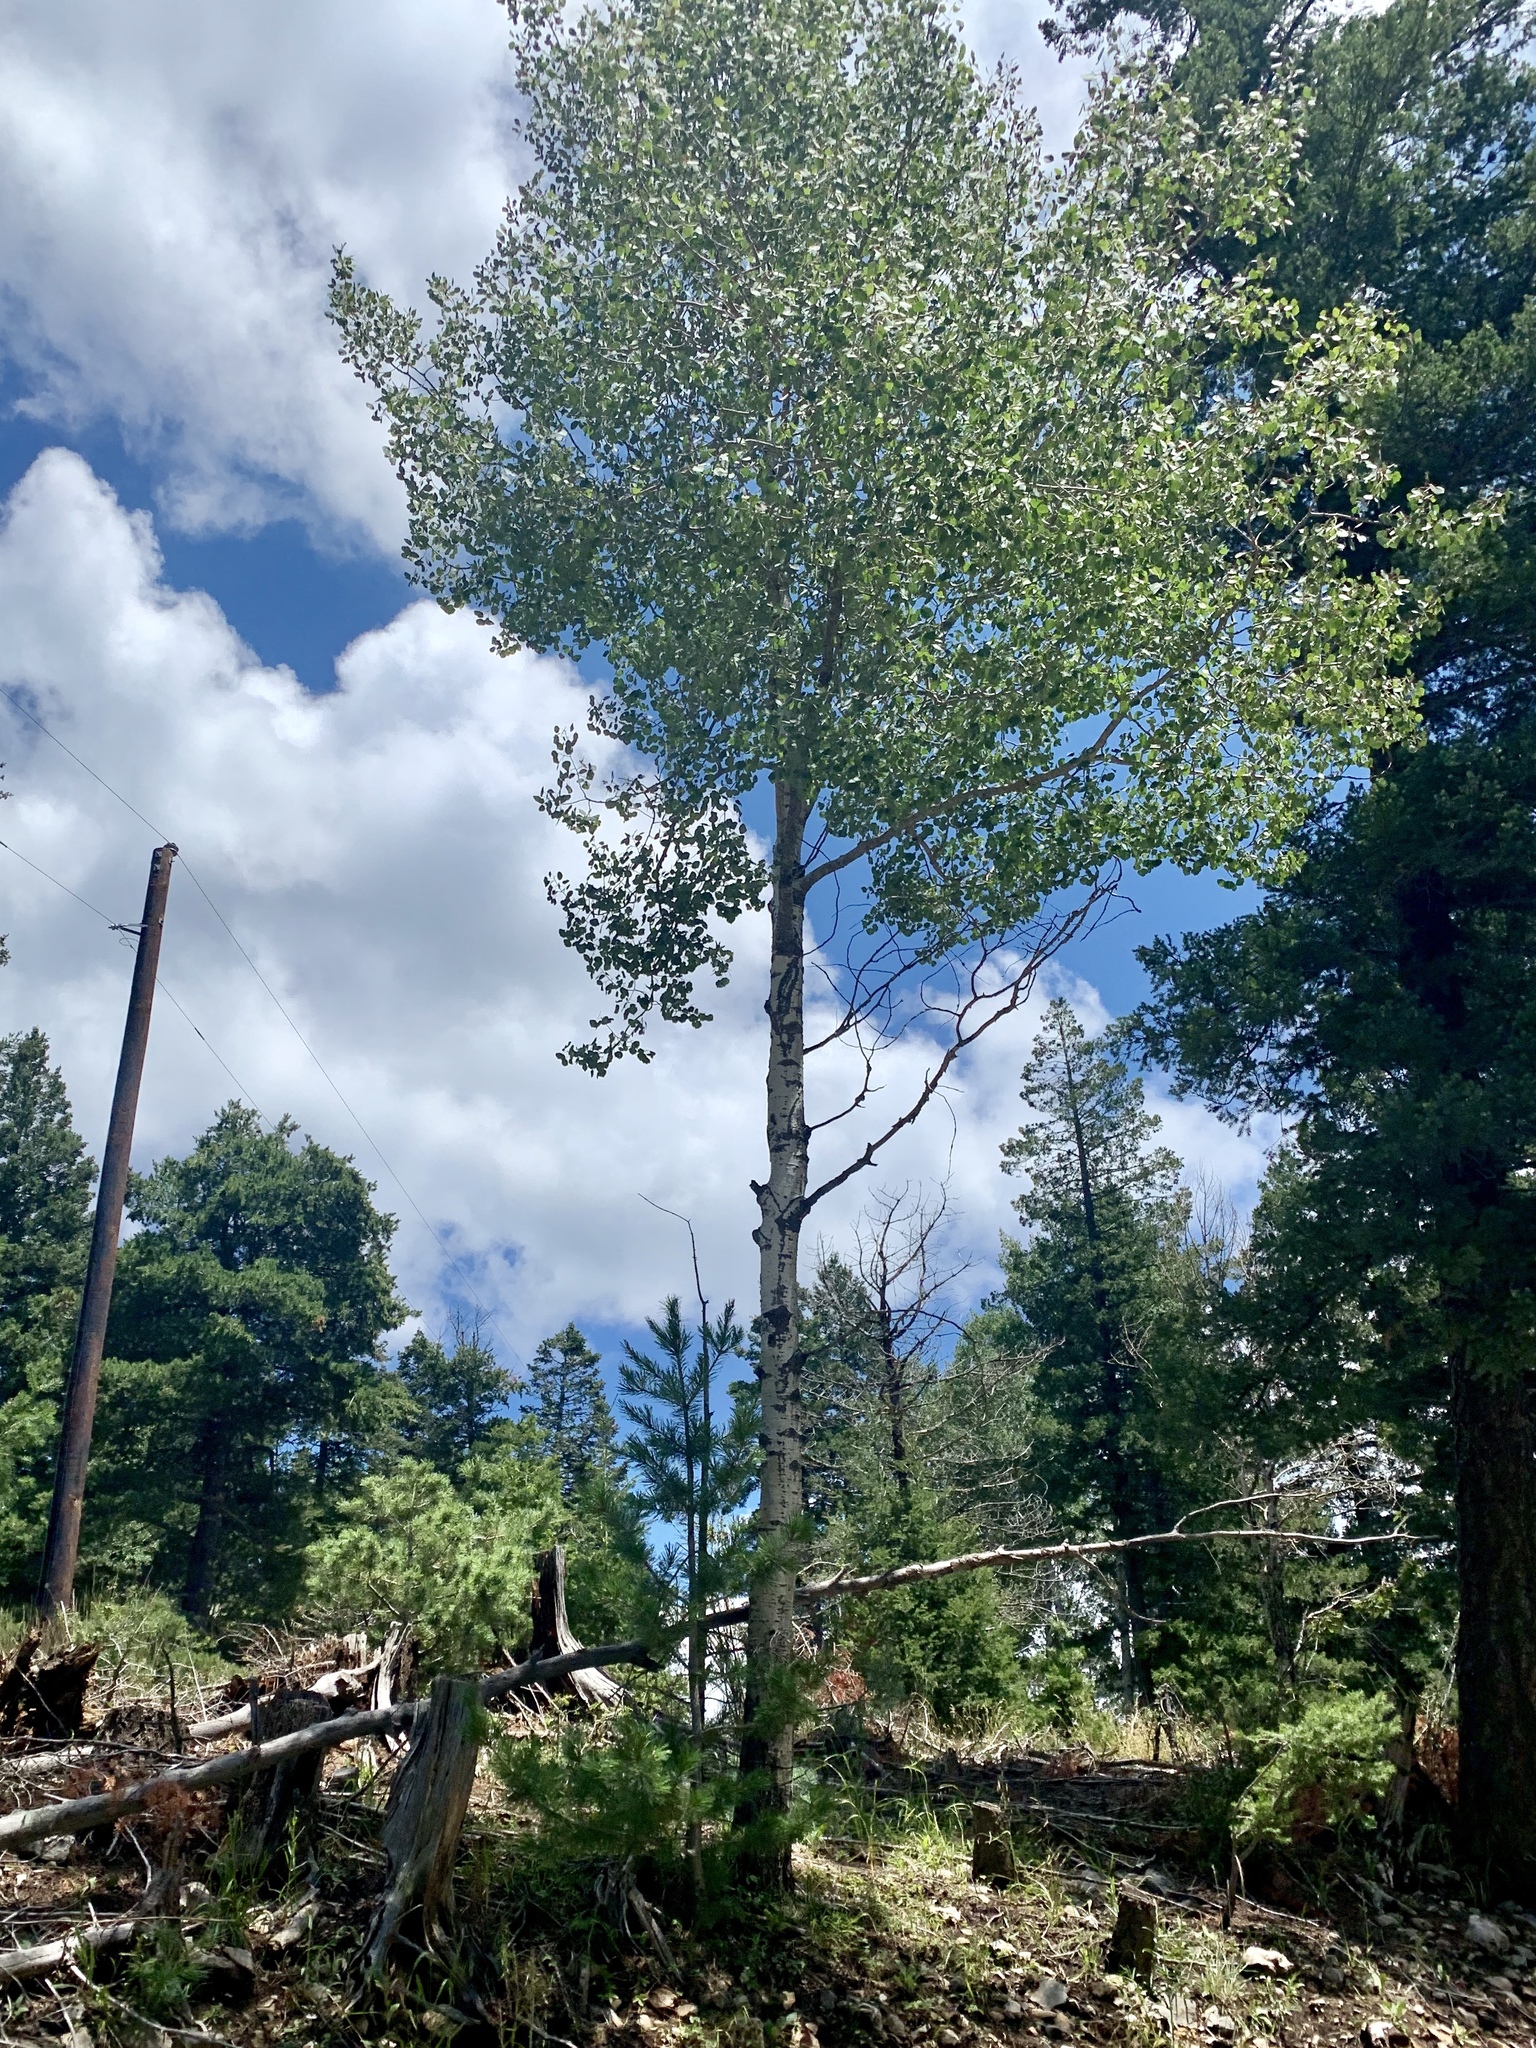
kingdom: Plantae
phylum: Tracheophyta
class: Magnoliopsida
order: Malpighiales
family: Salicaceae
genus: Populus
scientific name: Populus tremuloides
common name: Quaking aspen
